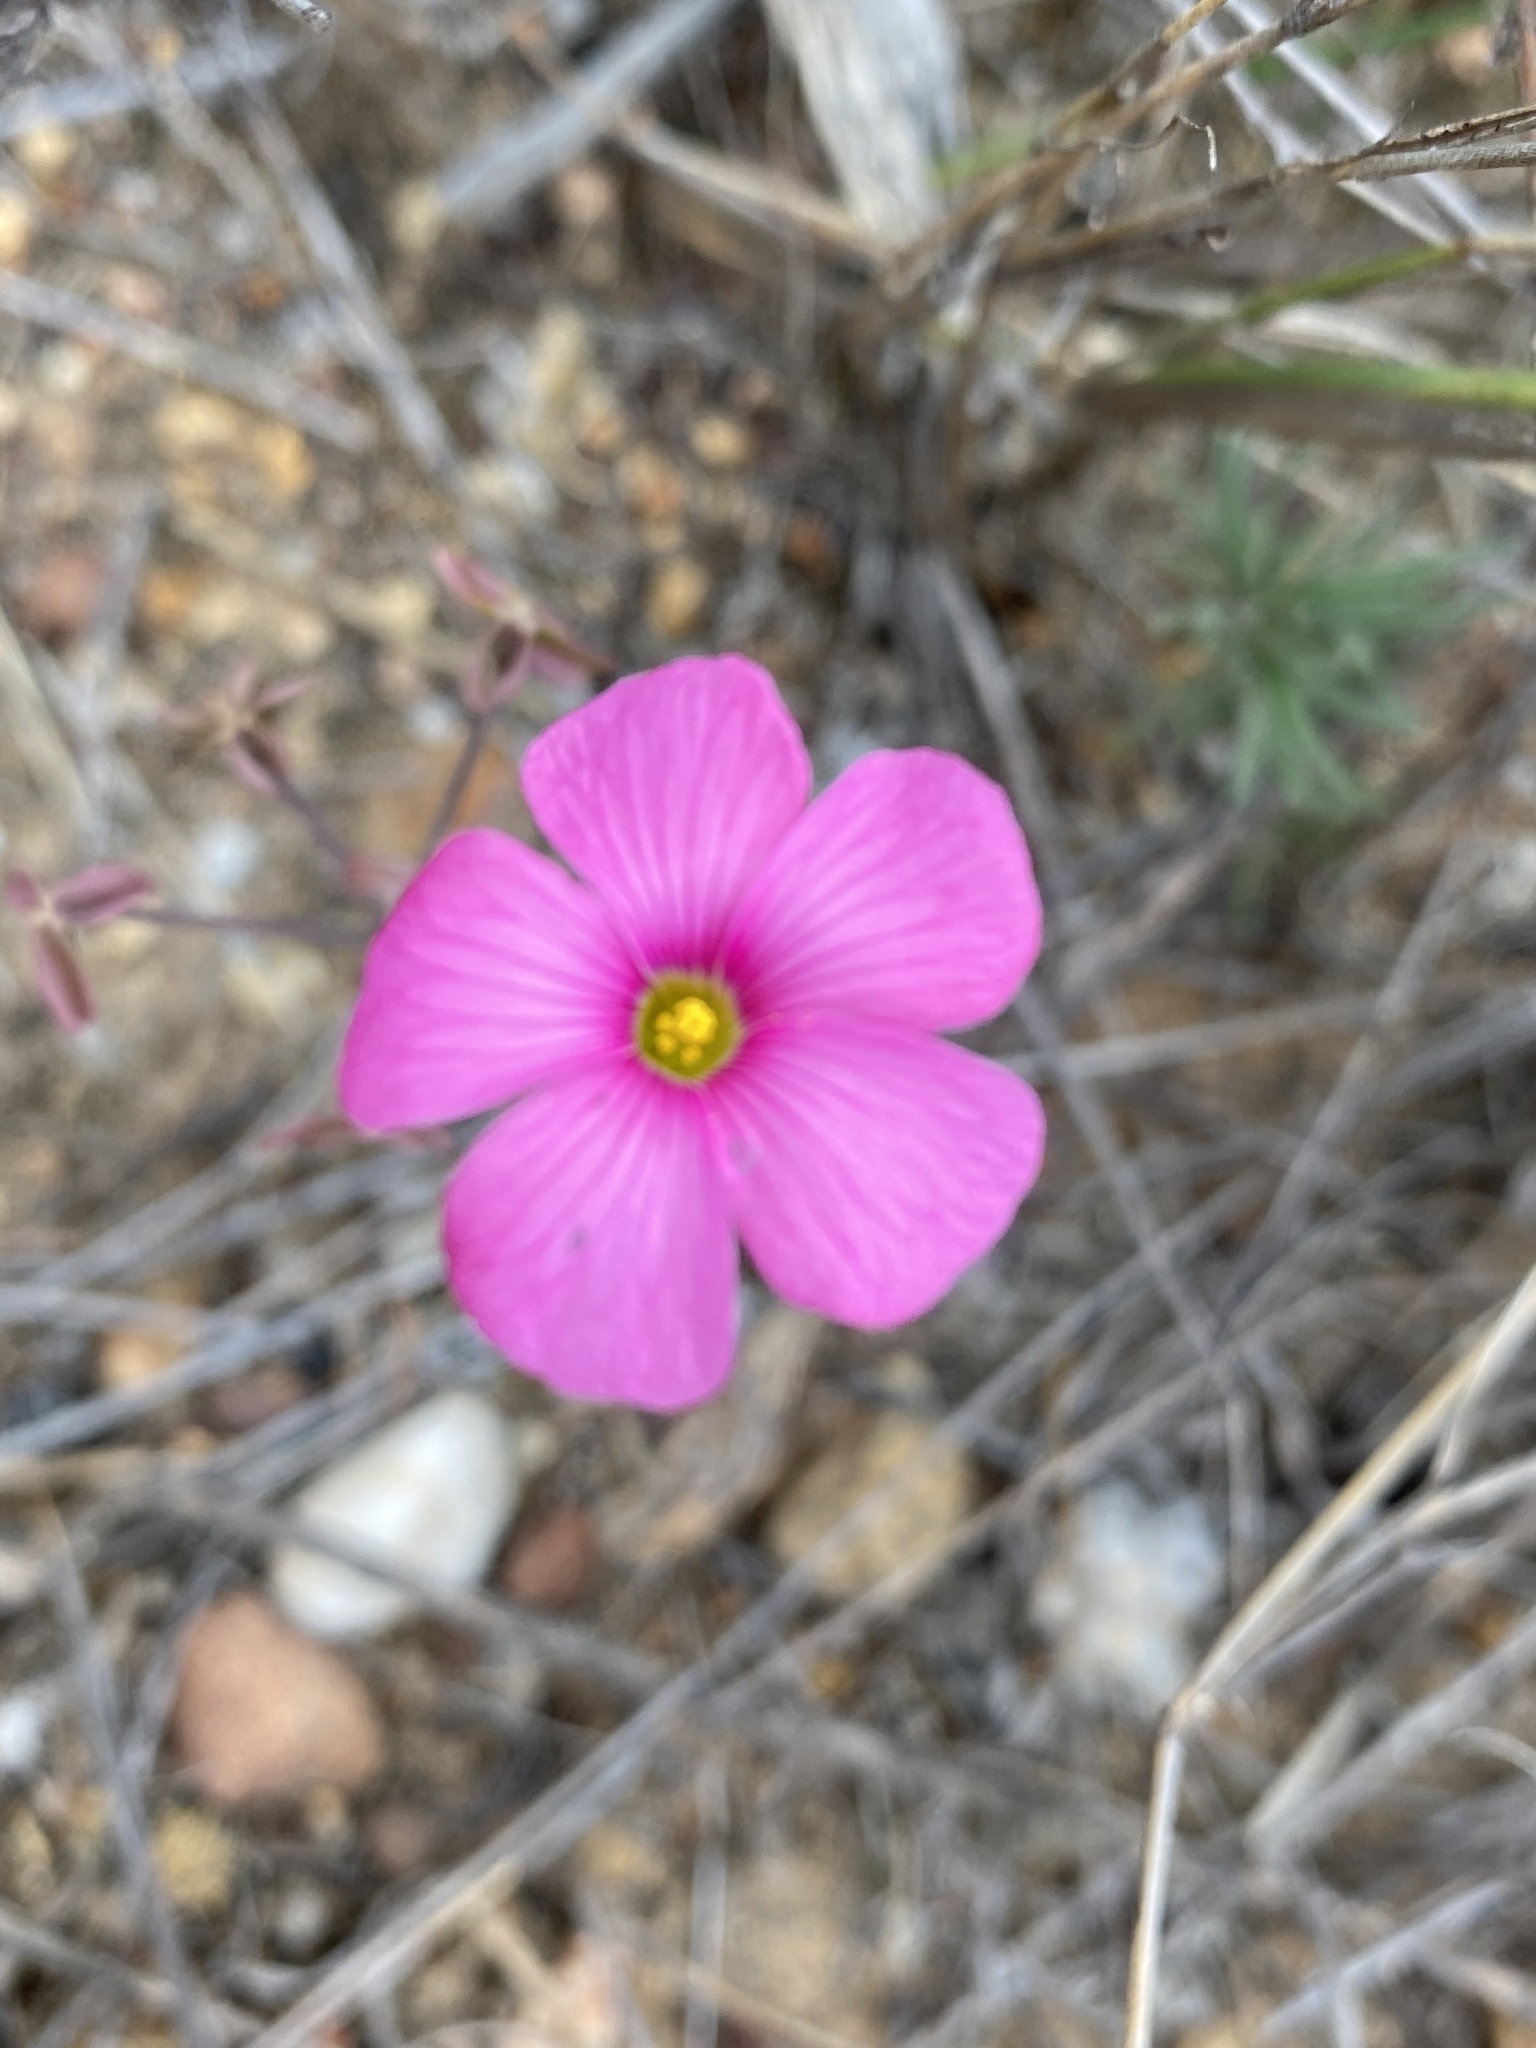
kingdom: Plantae
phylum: Tracheophyta
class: Magnoliopsida
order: Oxalidales
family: Oxalidaceae
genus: Oxalis
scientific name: Oxalis livida
